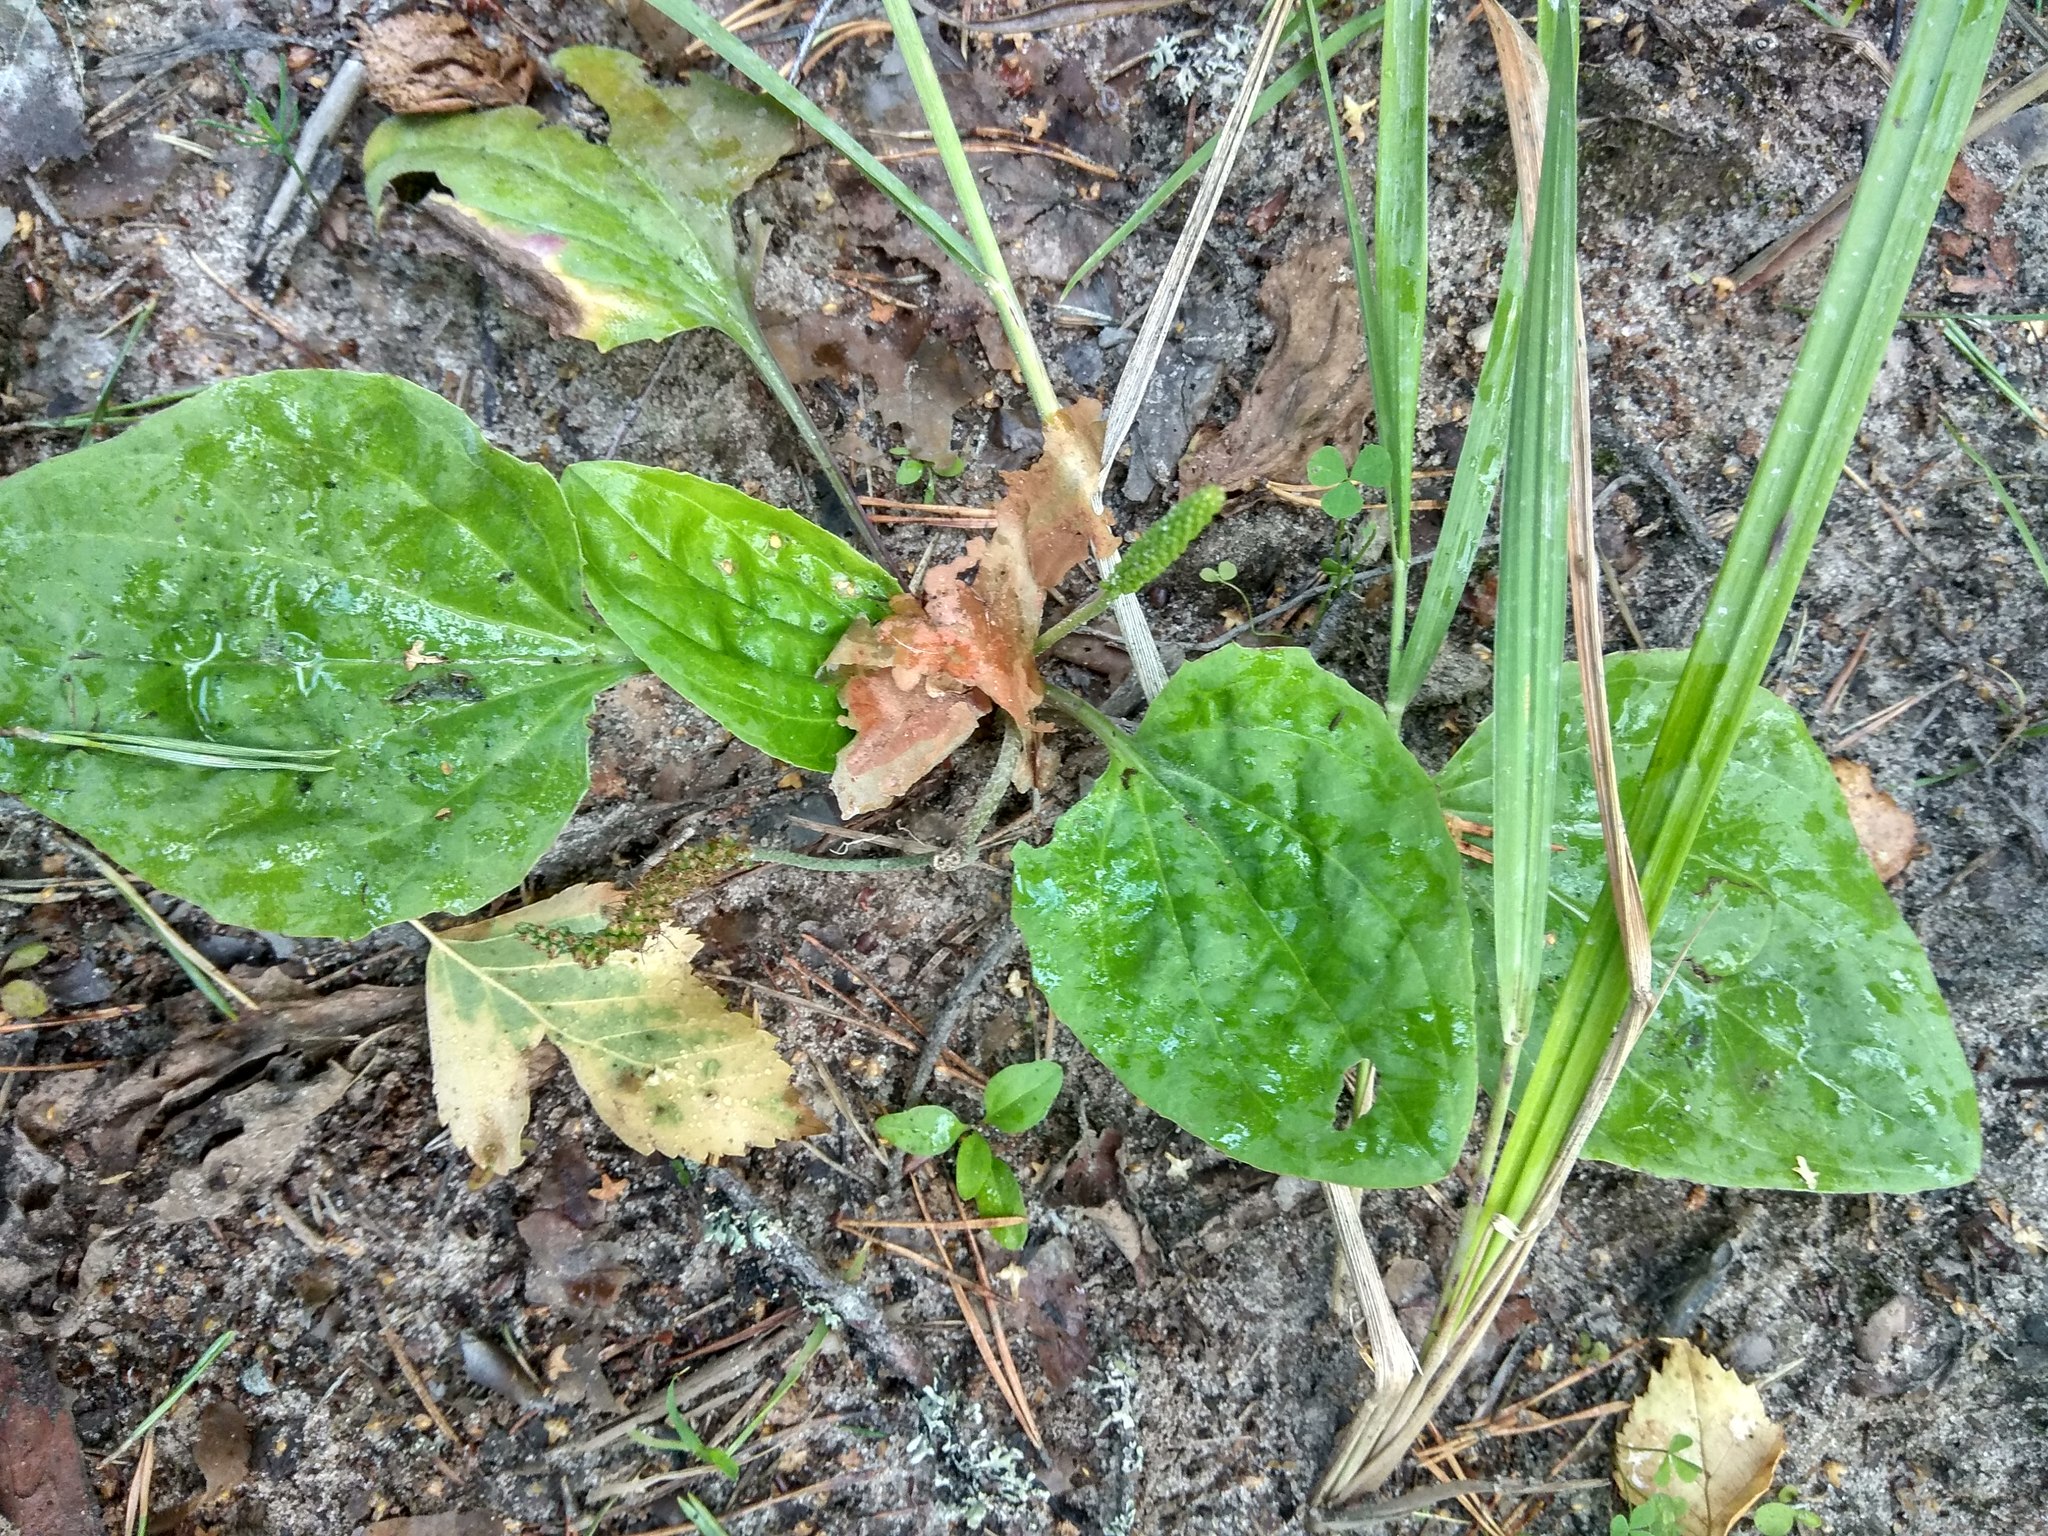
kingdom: Plantae
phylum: Tracheophyta
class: Magnoliopsida
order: Lamiales
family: Plantaginaceae
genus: Plantago
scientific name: Plantago major
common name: Common plantain
